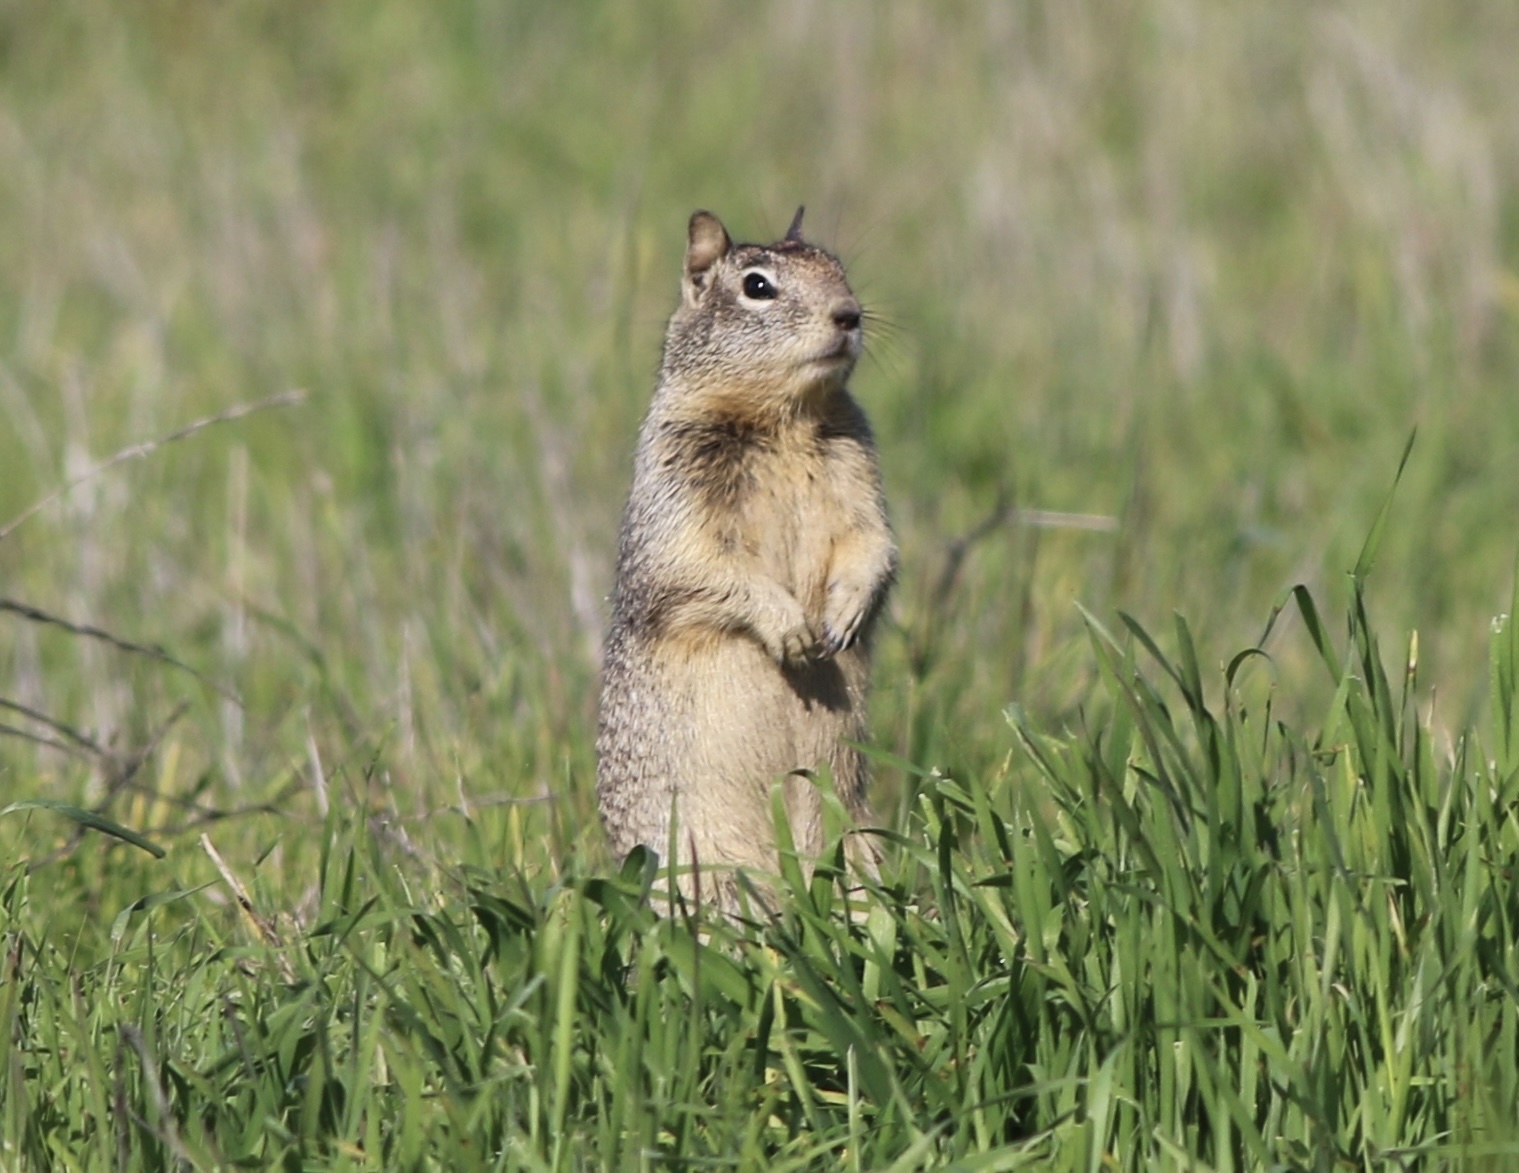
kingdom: Animalia
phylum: Chordata
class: Mammalia
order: Rodentia
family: Sciuridae
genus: Otospermophilus
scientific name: Otospermophilus beecheyi
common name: California ground squirrel
